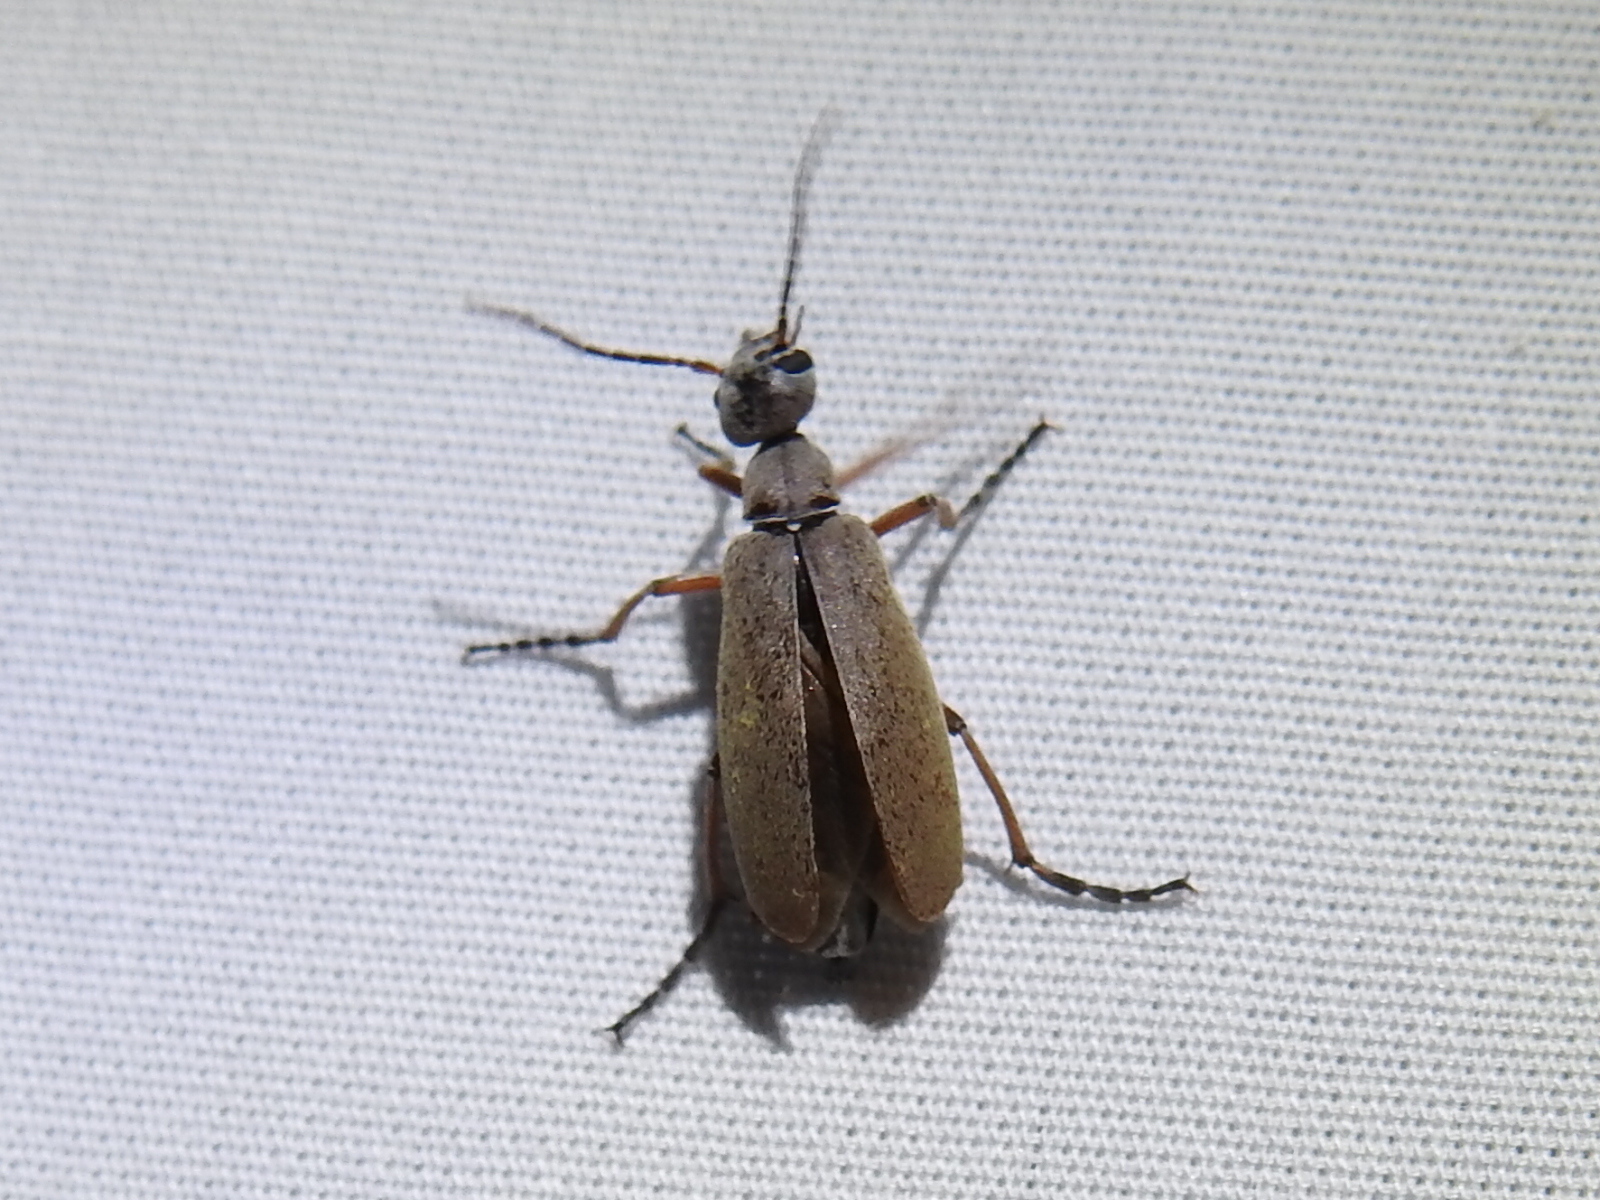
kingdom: Animalia
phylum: Arthropoda
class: Insecta
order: Coleoptera
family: Meloidae
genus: Epicauta
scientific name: Epicauta nigritarsis
